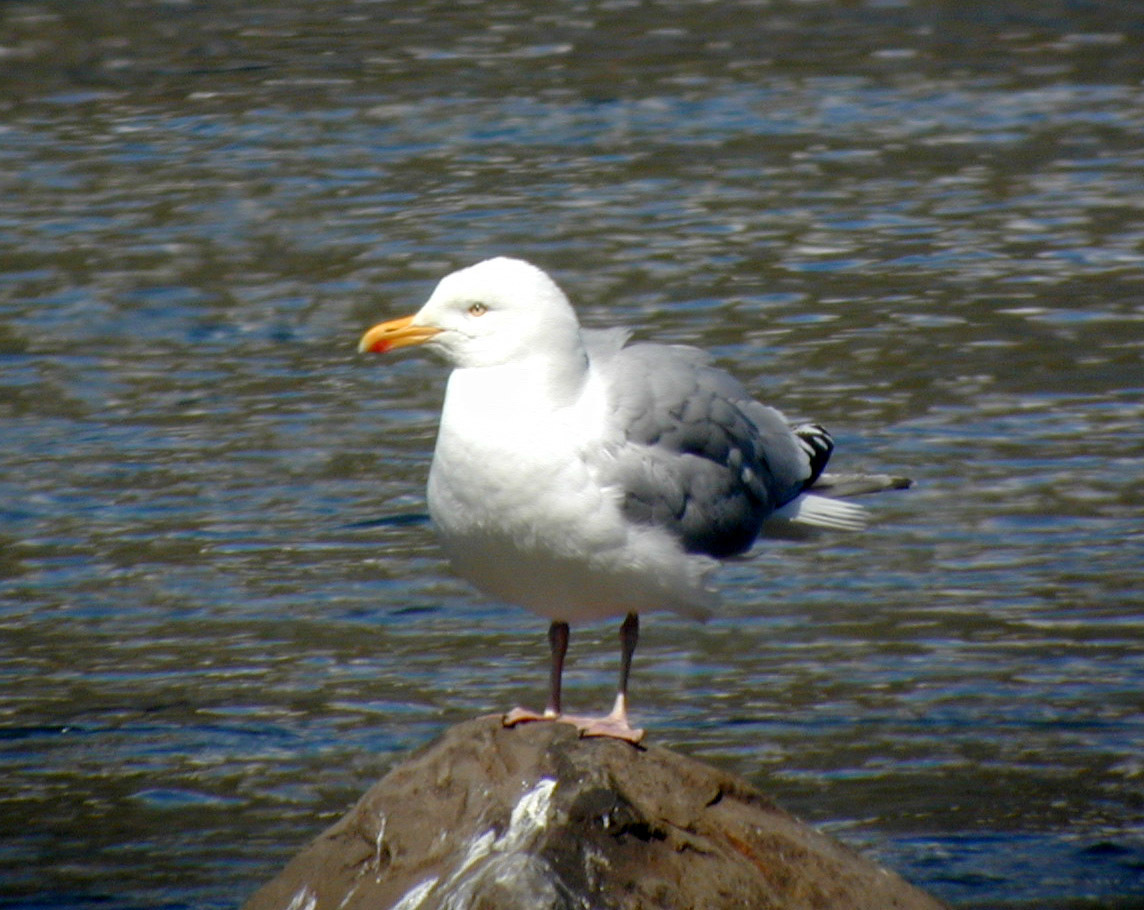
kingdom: Animalia
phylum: Chordata
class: Aves
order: Charadriiformes
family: Laridae
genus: Larus
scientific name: Larus argentatus
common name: Herring gull
